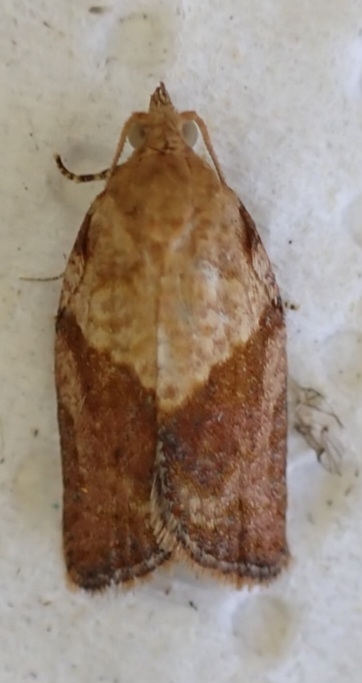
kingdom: Animalia
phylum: Arthropoda
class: Insecta
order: Lepidoptera
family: Tortricidae
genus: Epiphyas
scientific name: Epiphyas postvittana
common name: Light brown apple moth
